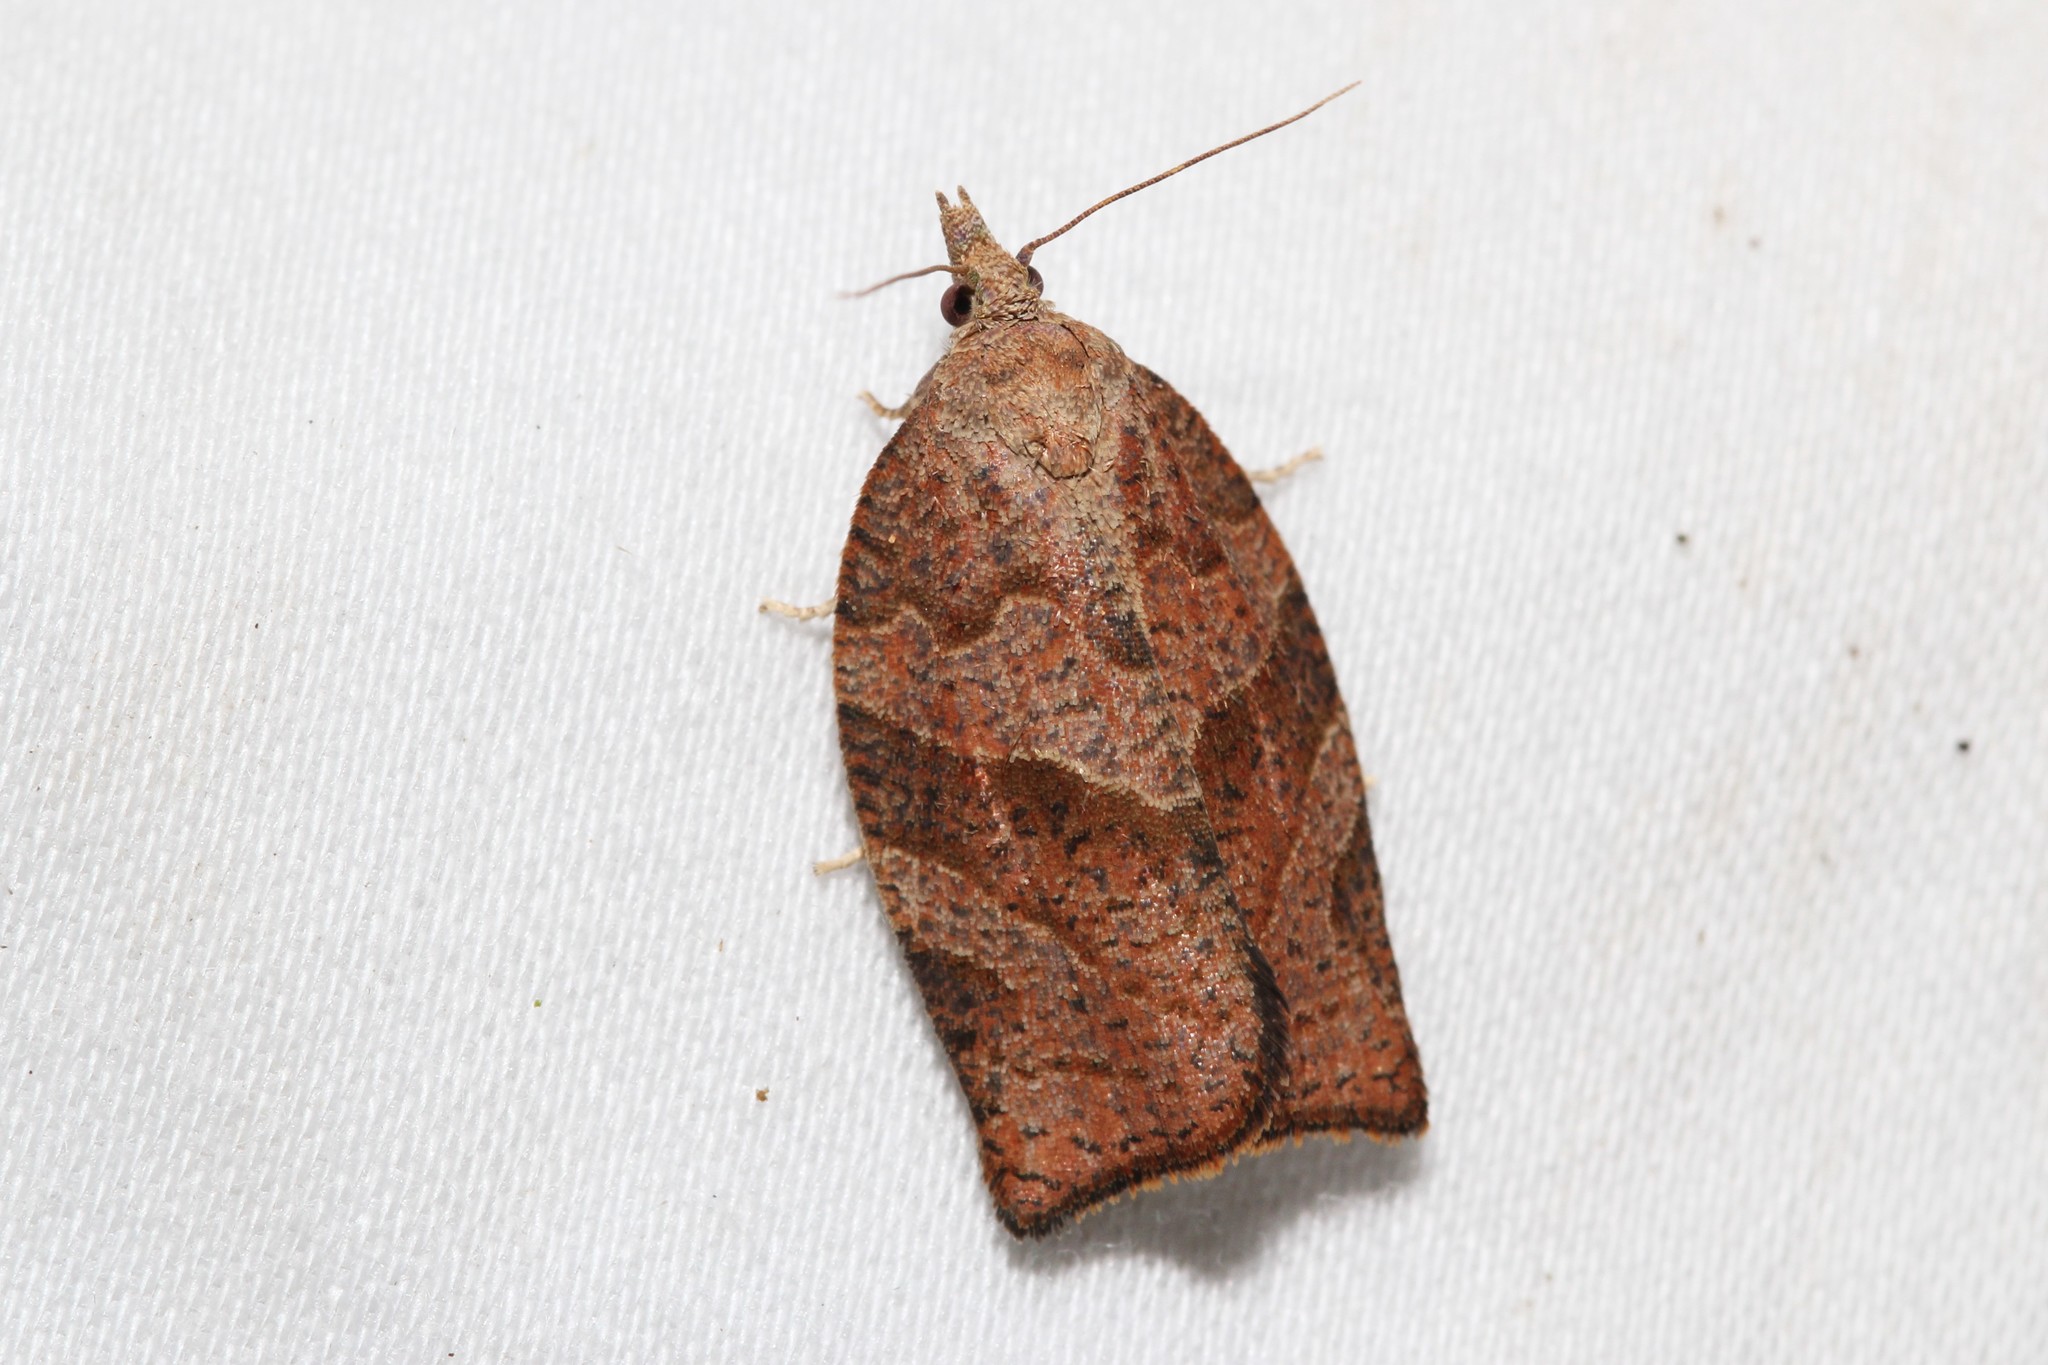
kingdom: Animalia
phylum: Arthropoda
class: Insecta
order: Lepidoptera
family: Tortricidae
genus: Pandemis
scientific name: Pandemis limitata
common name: Three-lined leafroller moth
